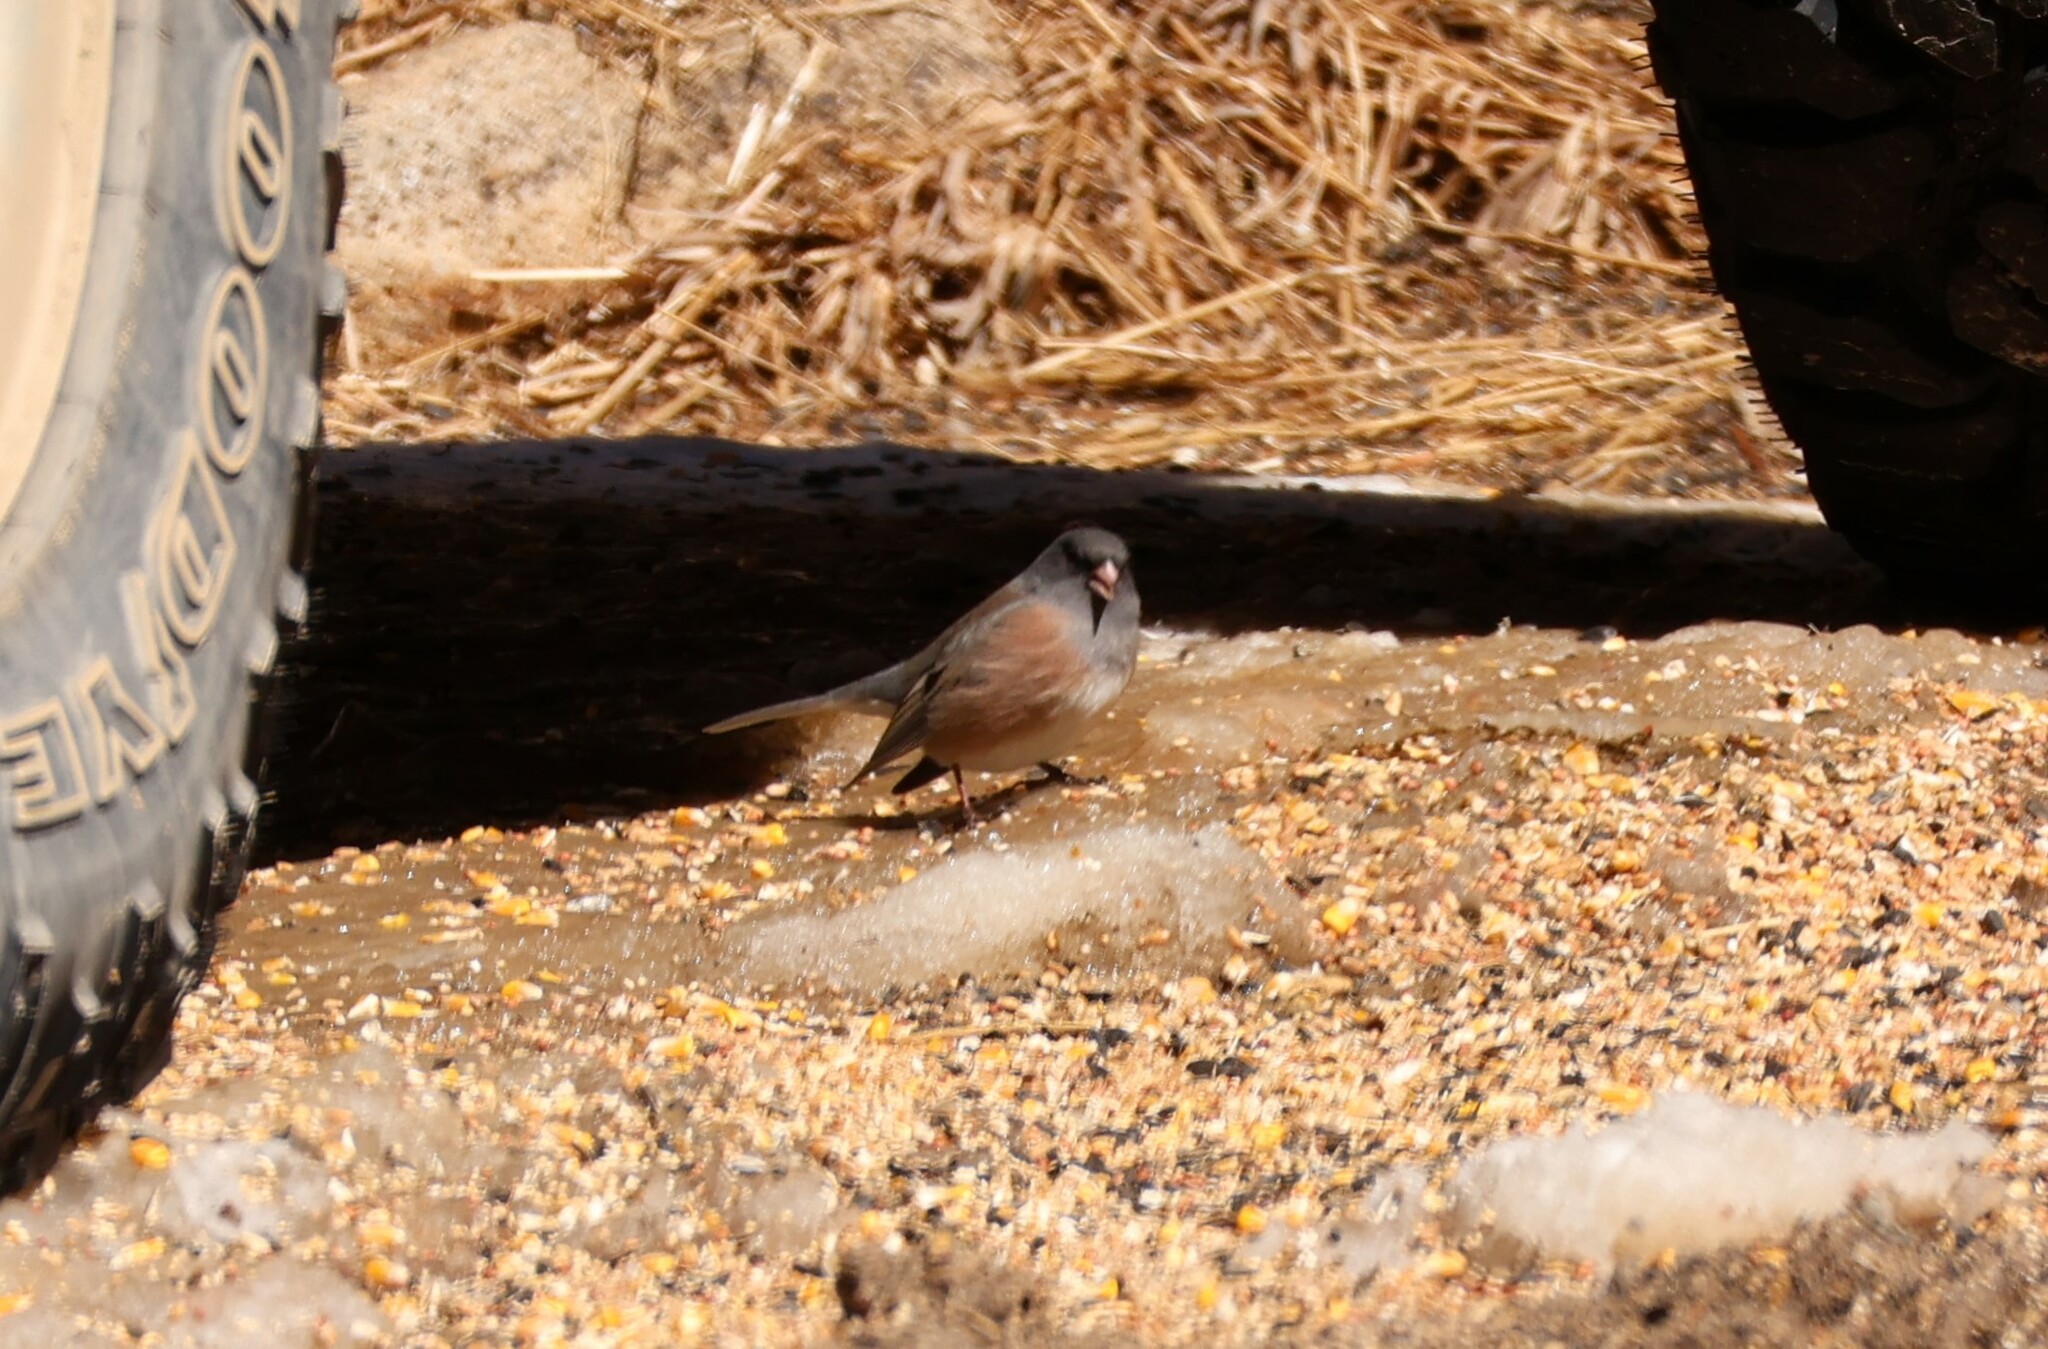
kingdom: Animalia
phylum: Chordata
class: Aves
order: Passeriformes
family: Passerellidae
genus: Junco
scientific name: Junco hyemalis
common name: Dark-eyed junco
